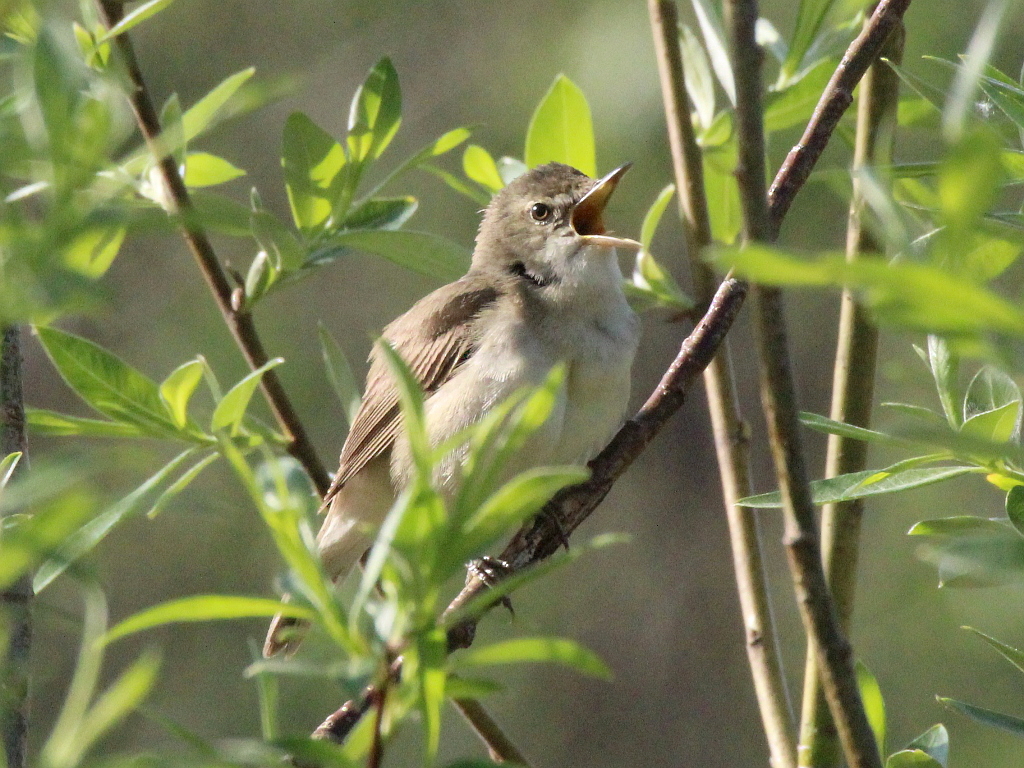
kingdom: Animalia
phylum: Chordata
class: Aves
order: Passeriformes
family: Acrocephalidae
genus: Acrocephalus
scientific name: Acrocephalus dumetorum
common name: Blyth's reed warbler
